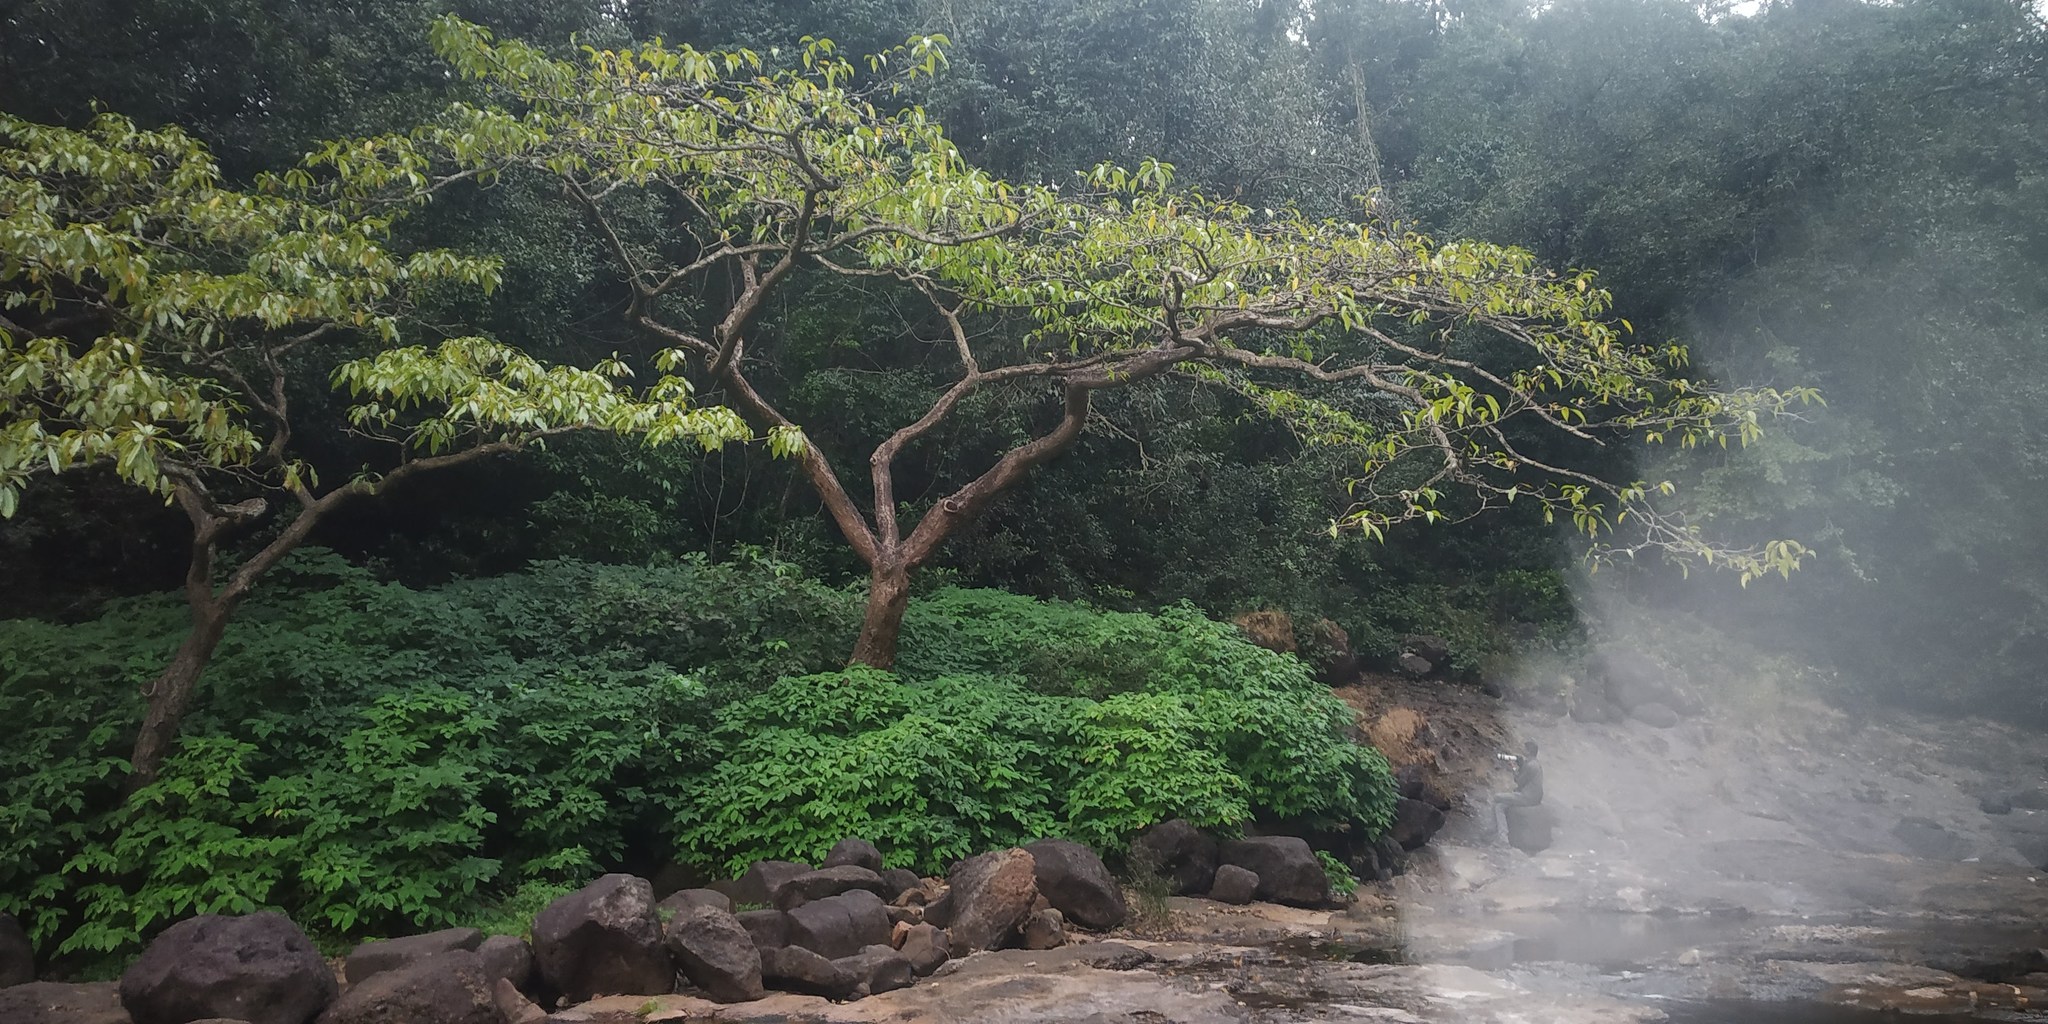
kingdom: Plantae
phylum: Tracheophyta
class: Magnoliopsida
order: Malpighiales
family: Euphorbiaceae
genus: Falconeria
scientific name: Falconeria insignis
